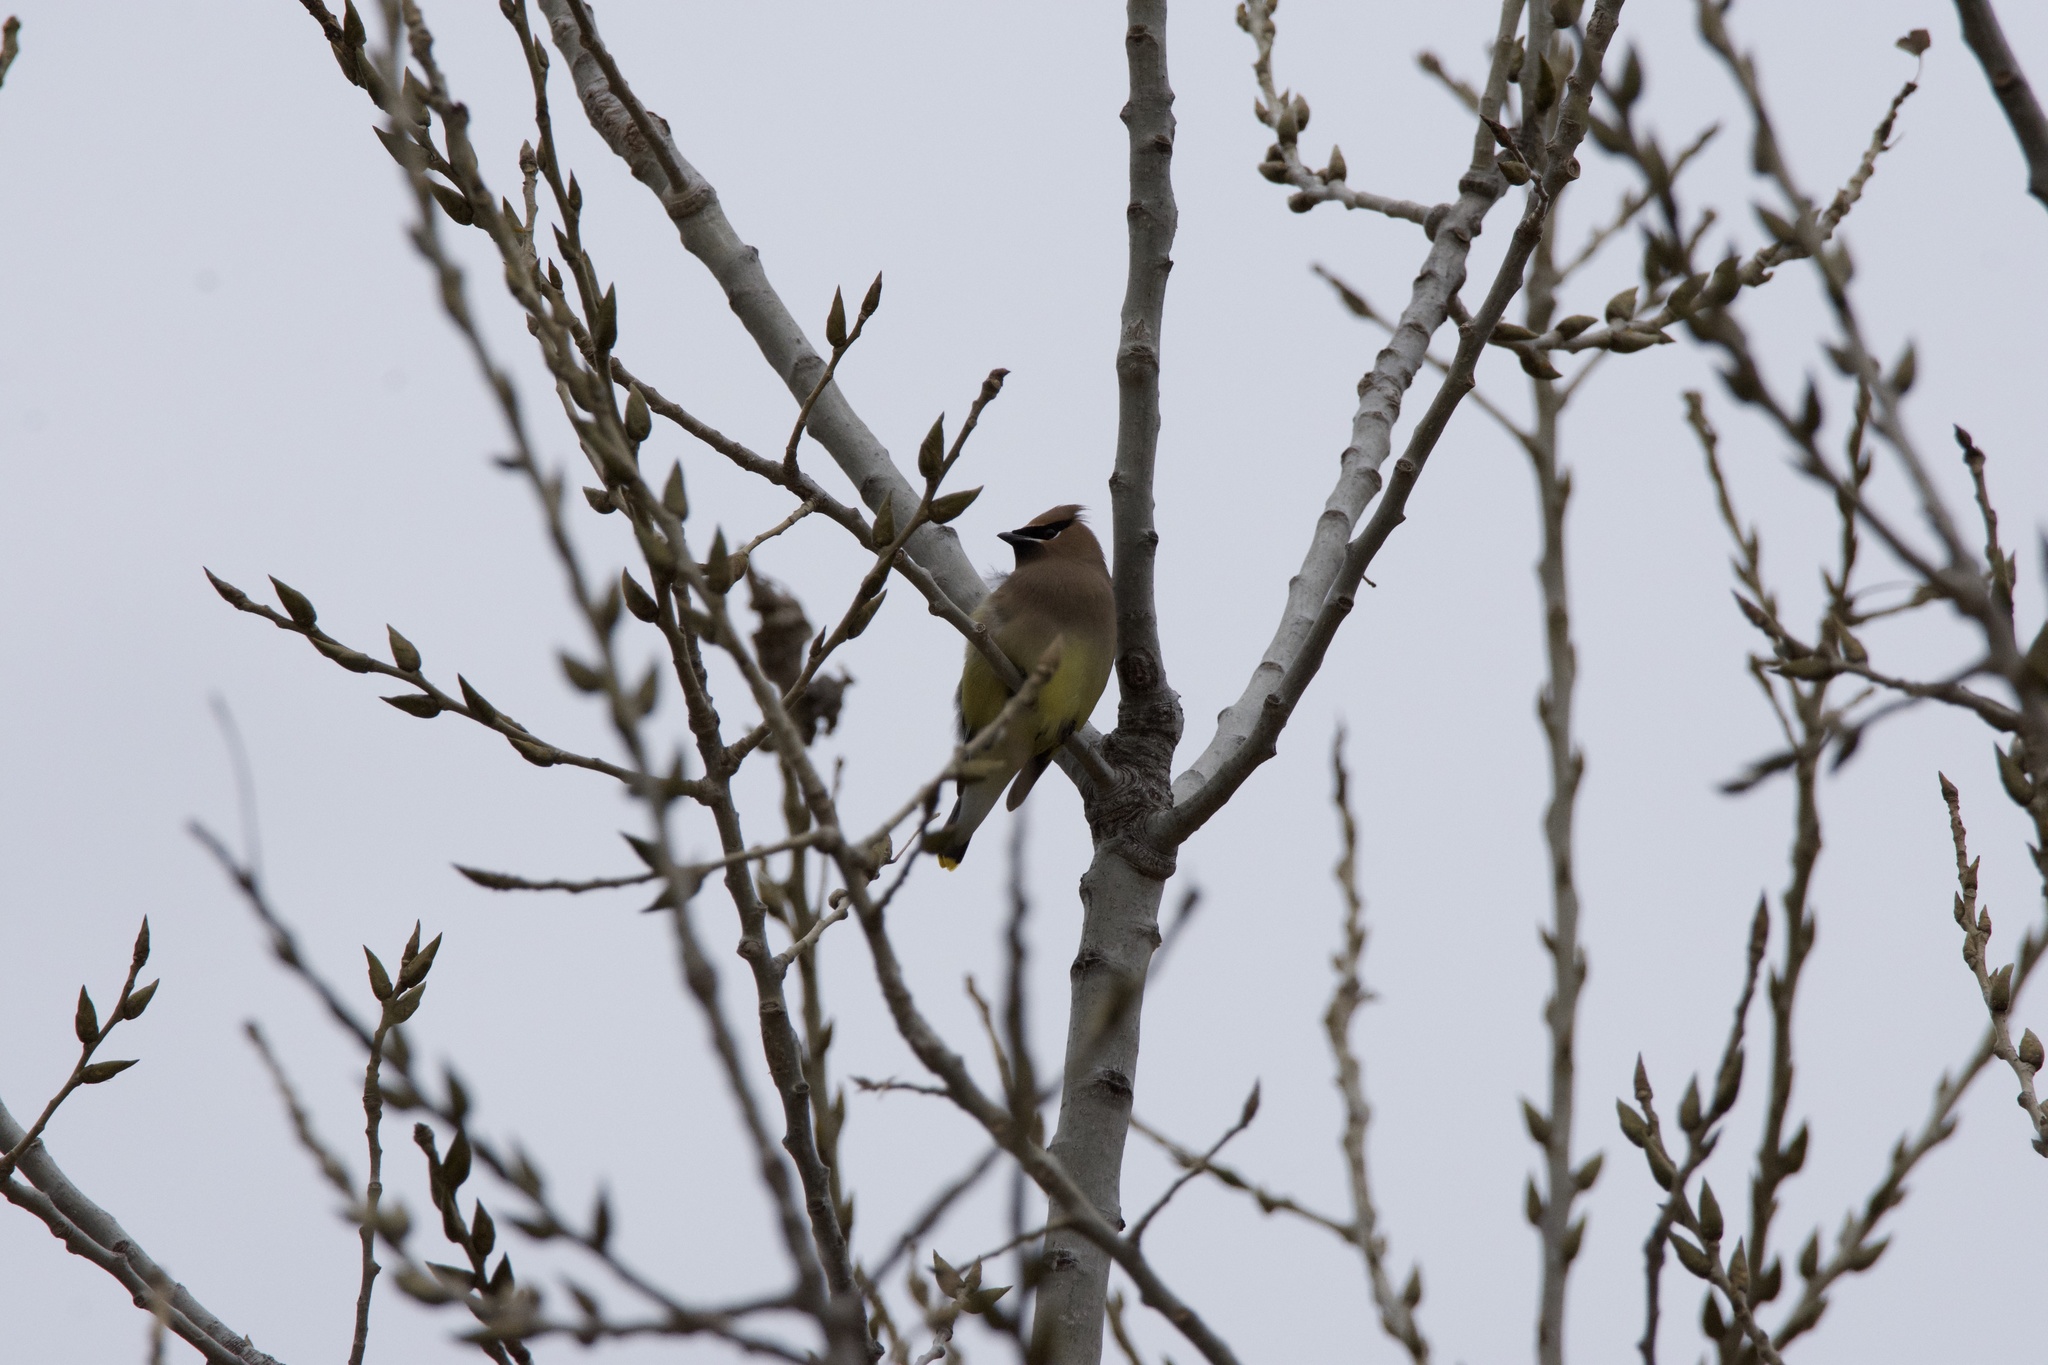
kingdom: Animalia
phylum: Chordata
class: Aves
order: Passeriformes
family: Bombycillidae
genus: Bombycilla
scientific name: Bombycilla cedrorum
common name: Cedar waxwing
